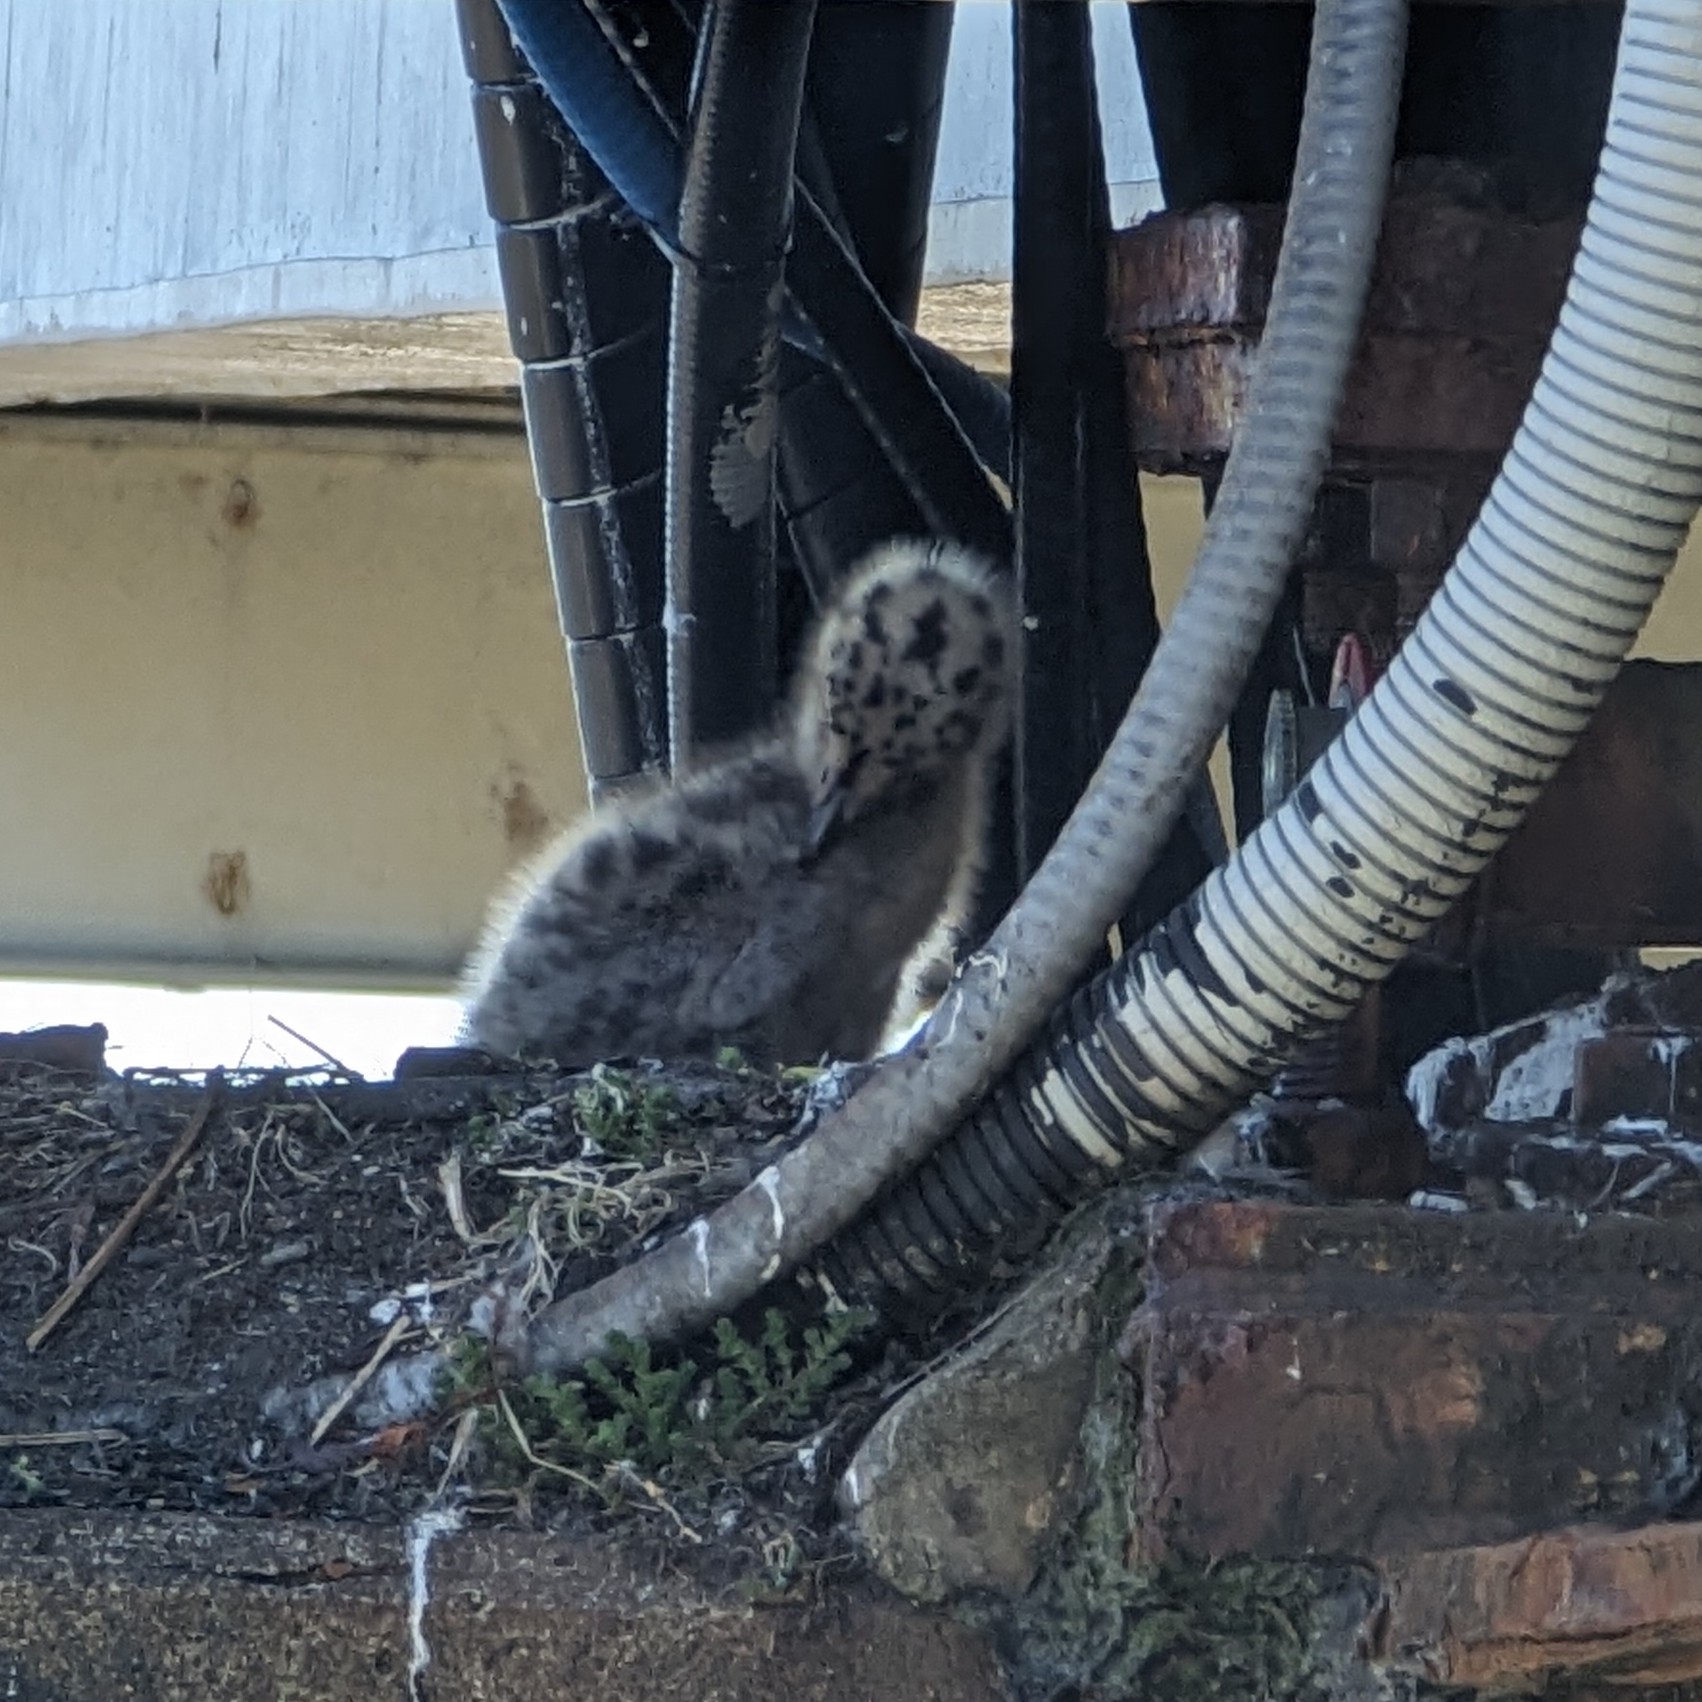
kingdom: Animalia
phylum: Chordata
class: Aves
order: Charadriiformes
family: Laridae
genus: Larus
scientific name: Larus
